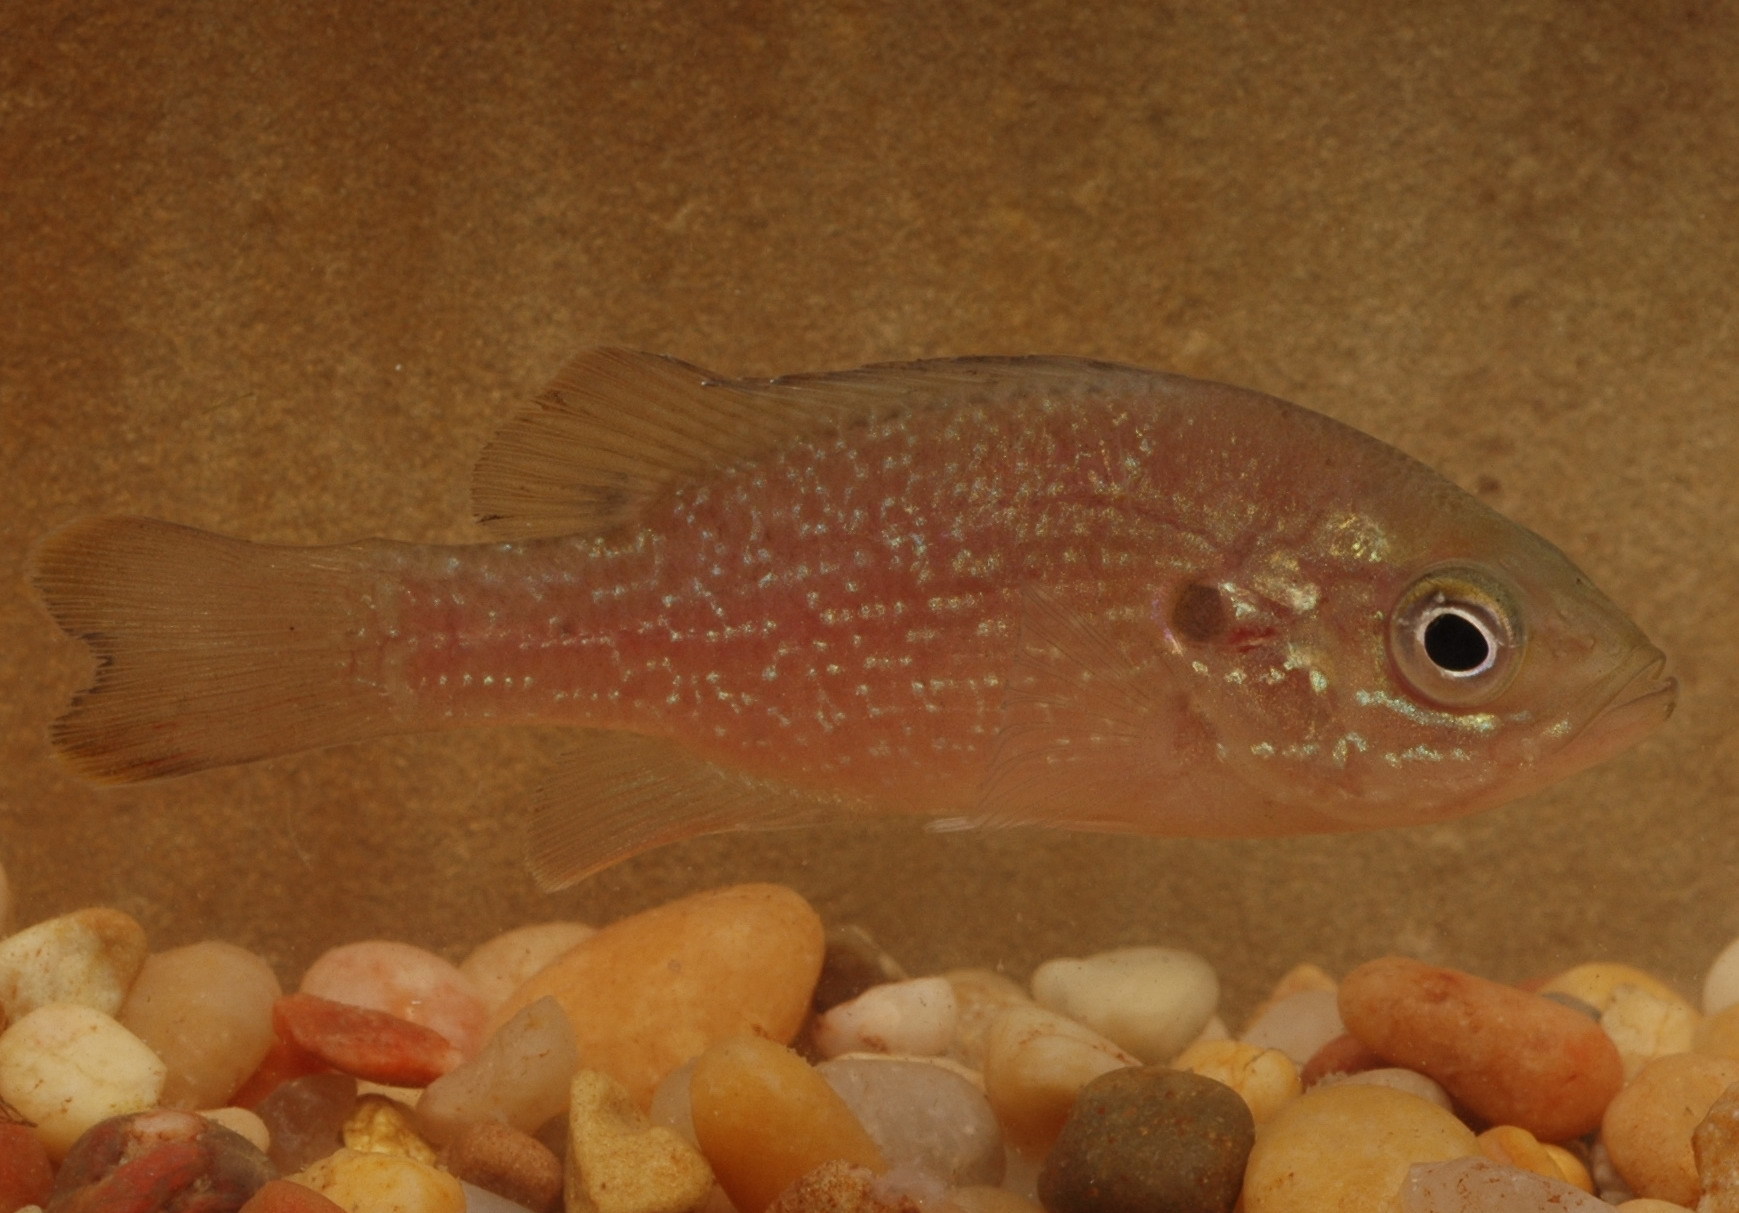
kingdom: Animalia
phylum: Chordata
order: Perciformes
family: Centrarchidae
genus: Lepomis
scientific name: Lepomis cyanellus
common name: Green sunfish
